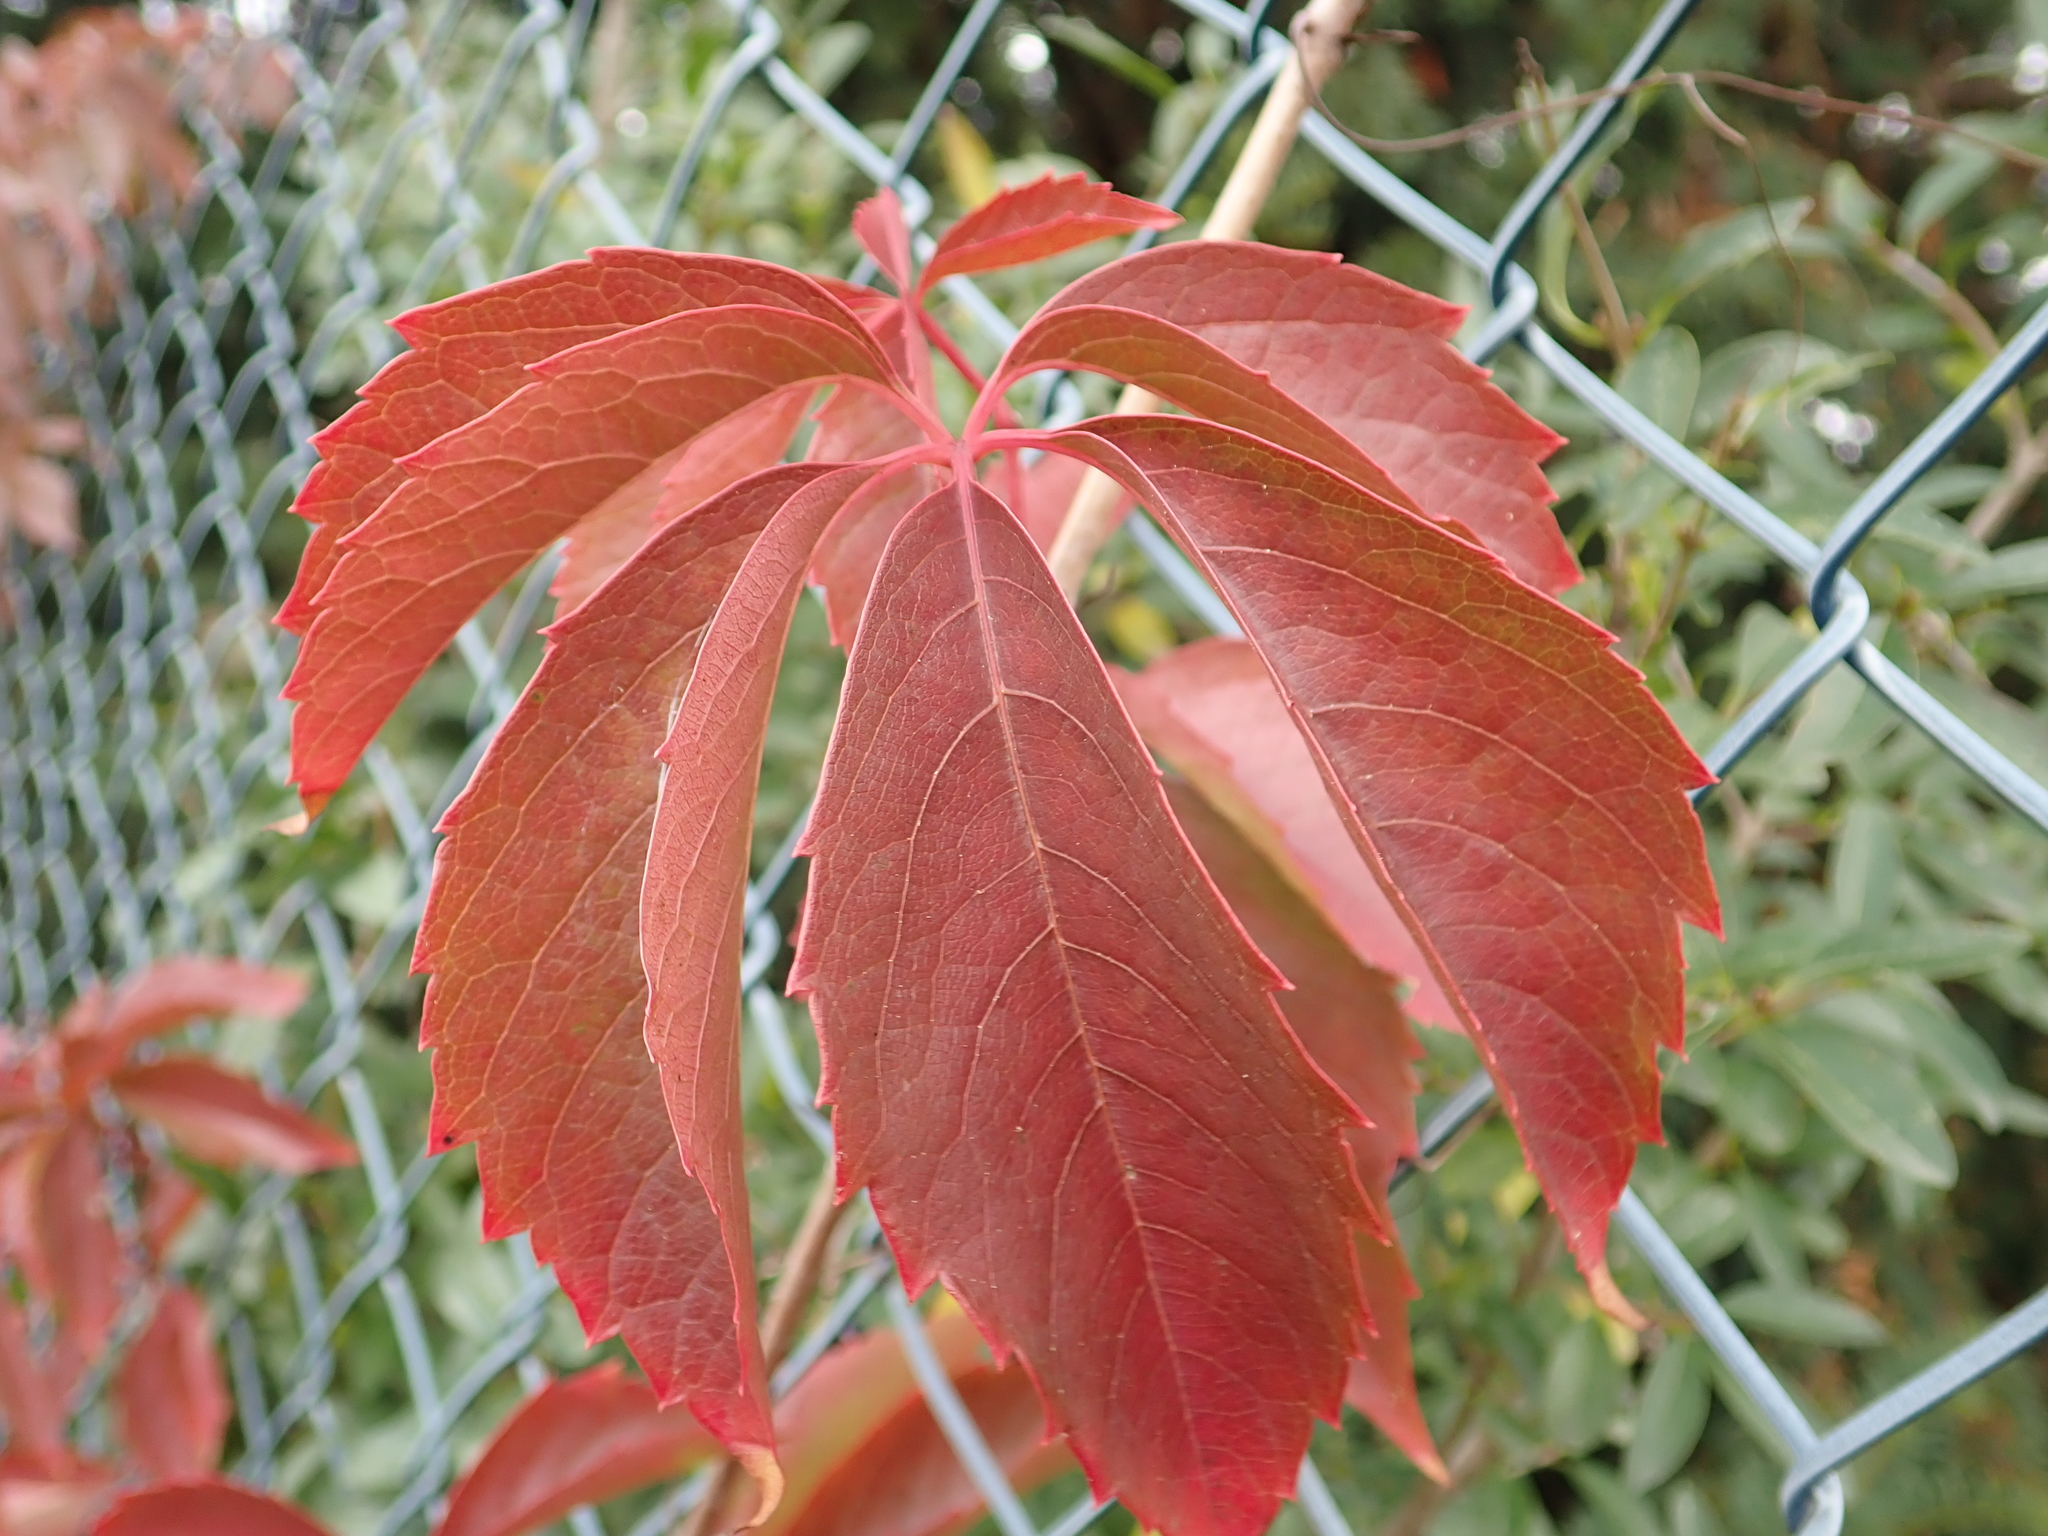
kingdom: Plantae
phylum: Tracheophyta
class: Magnoliopsida
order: Vitales
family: Vitaceae
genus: Parthenocissus
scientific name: Parthenocissus quinquefolia
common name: Virginia-creeper
